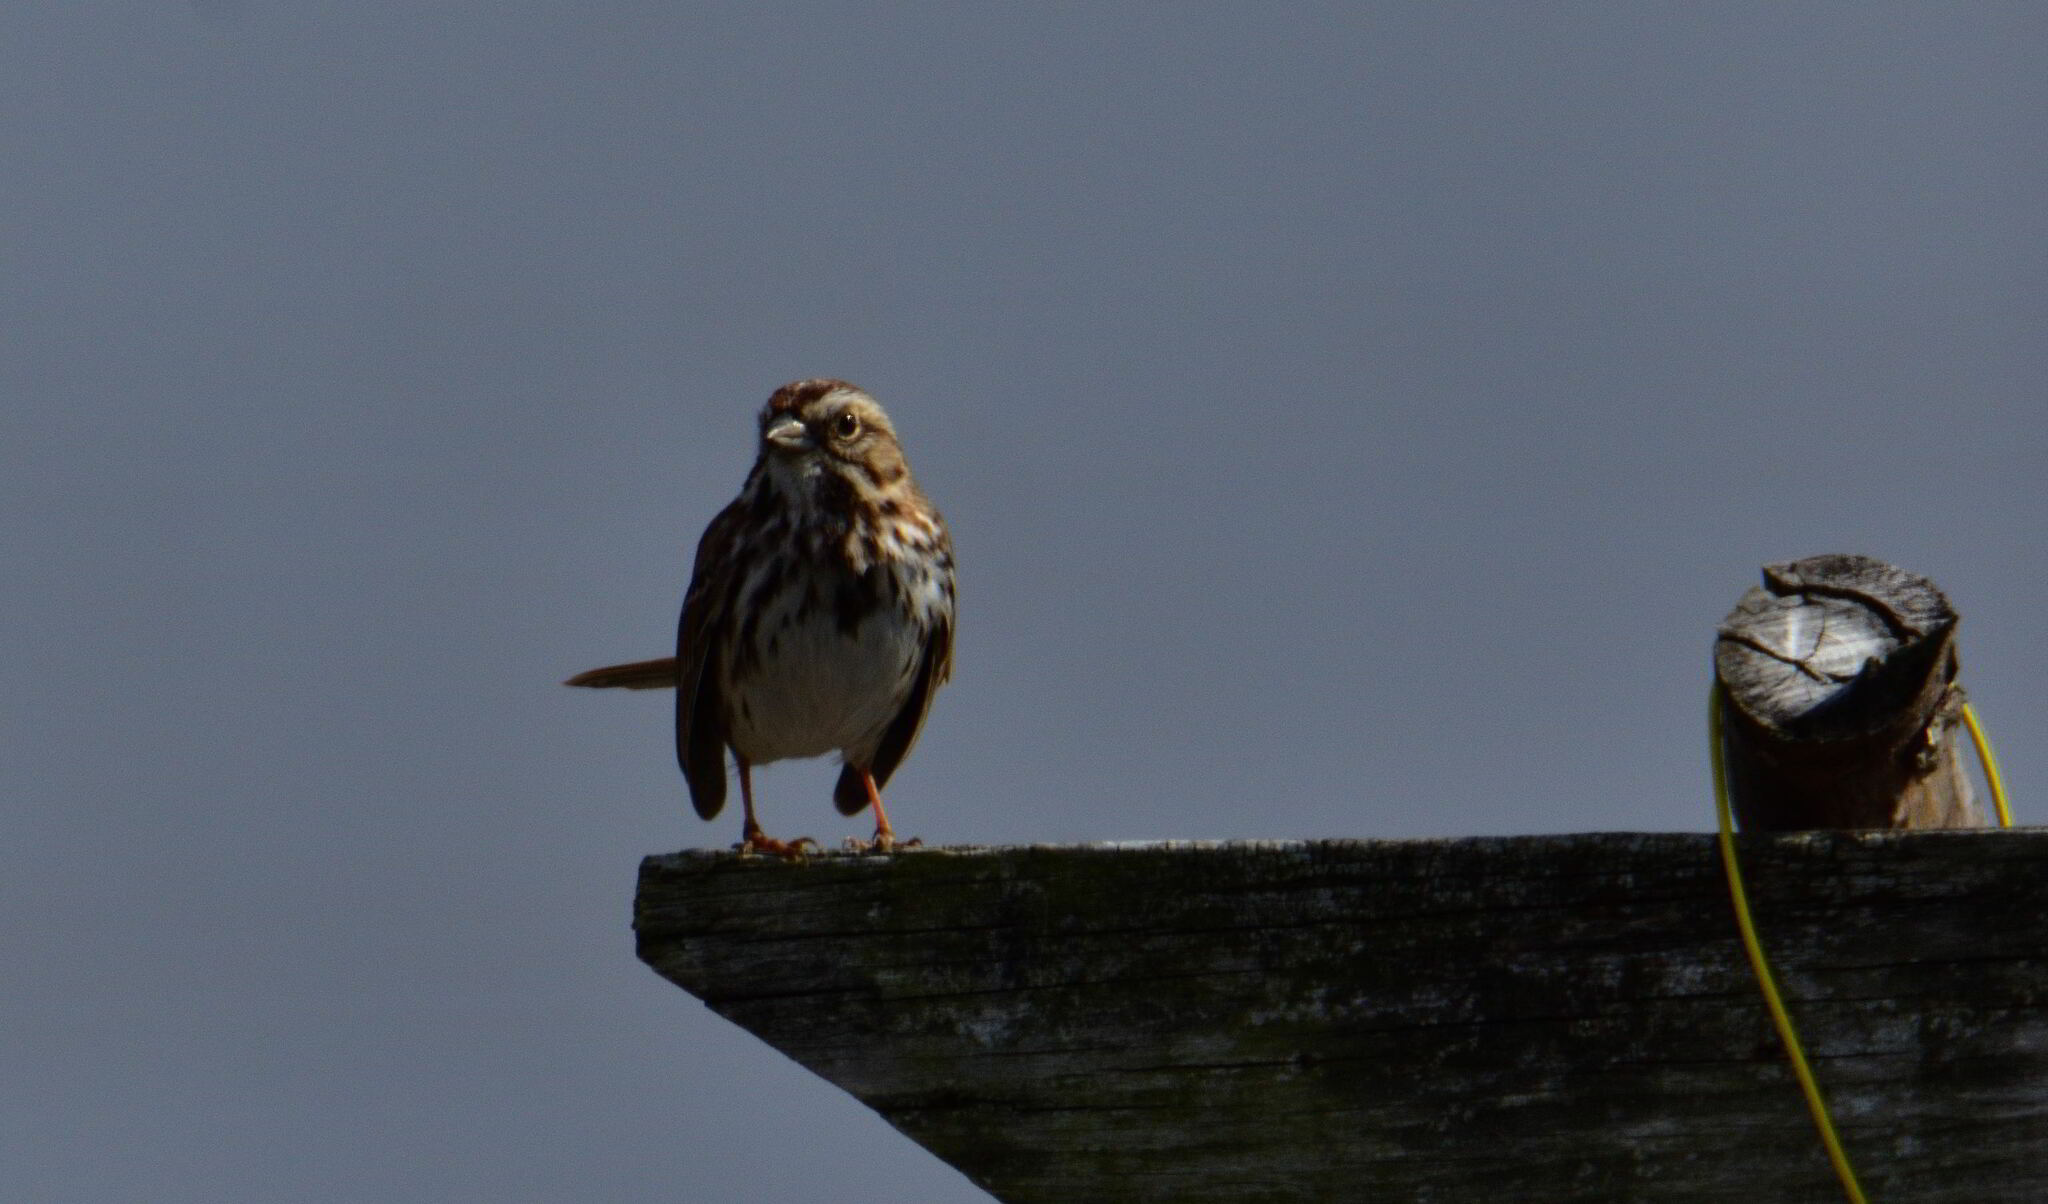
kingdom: Animalia
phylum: Chordata
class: Aves
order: Passeriformes
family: Passerellidae
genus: Melospiza
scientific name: Melospiza melodia
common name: Song sparrow
